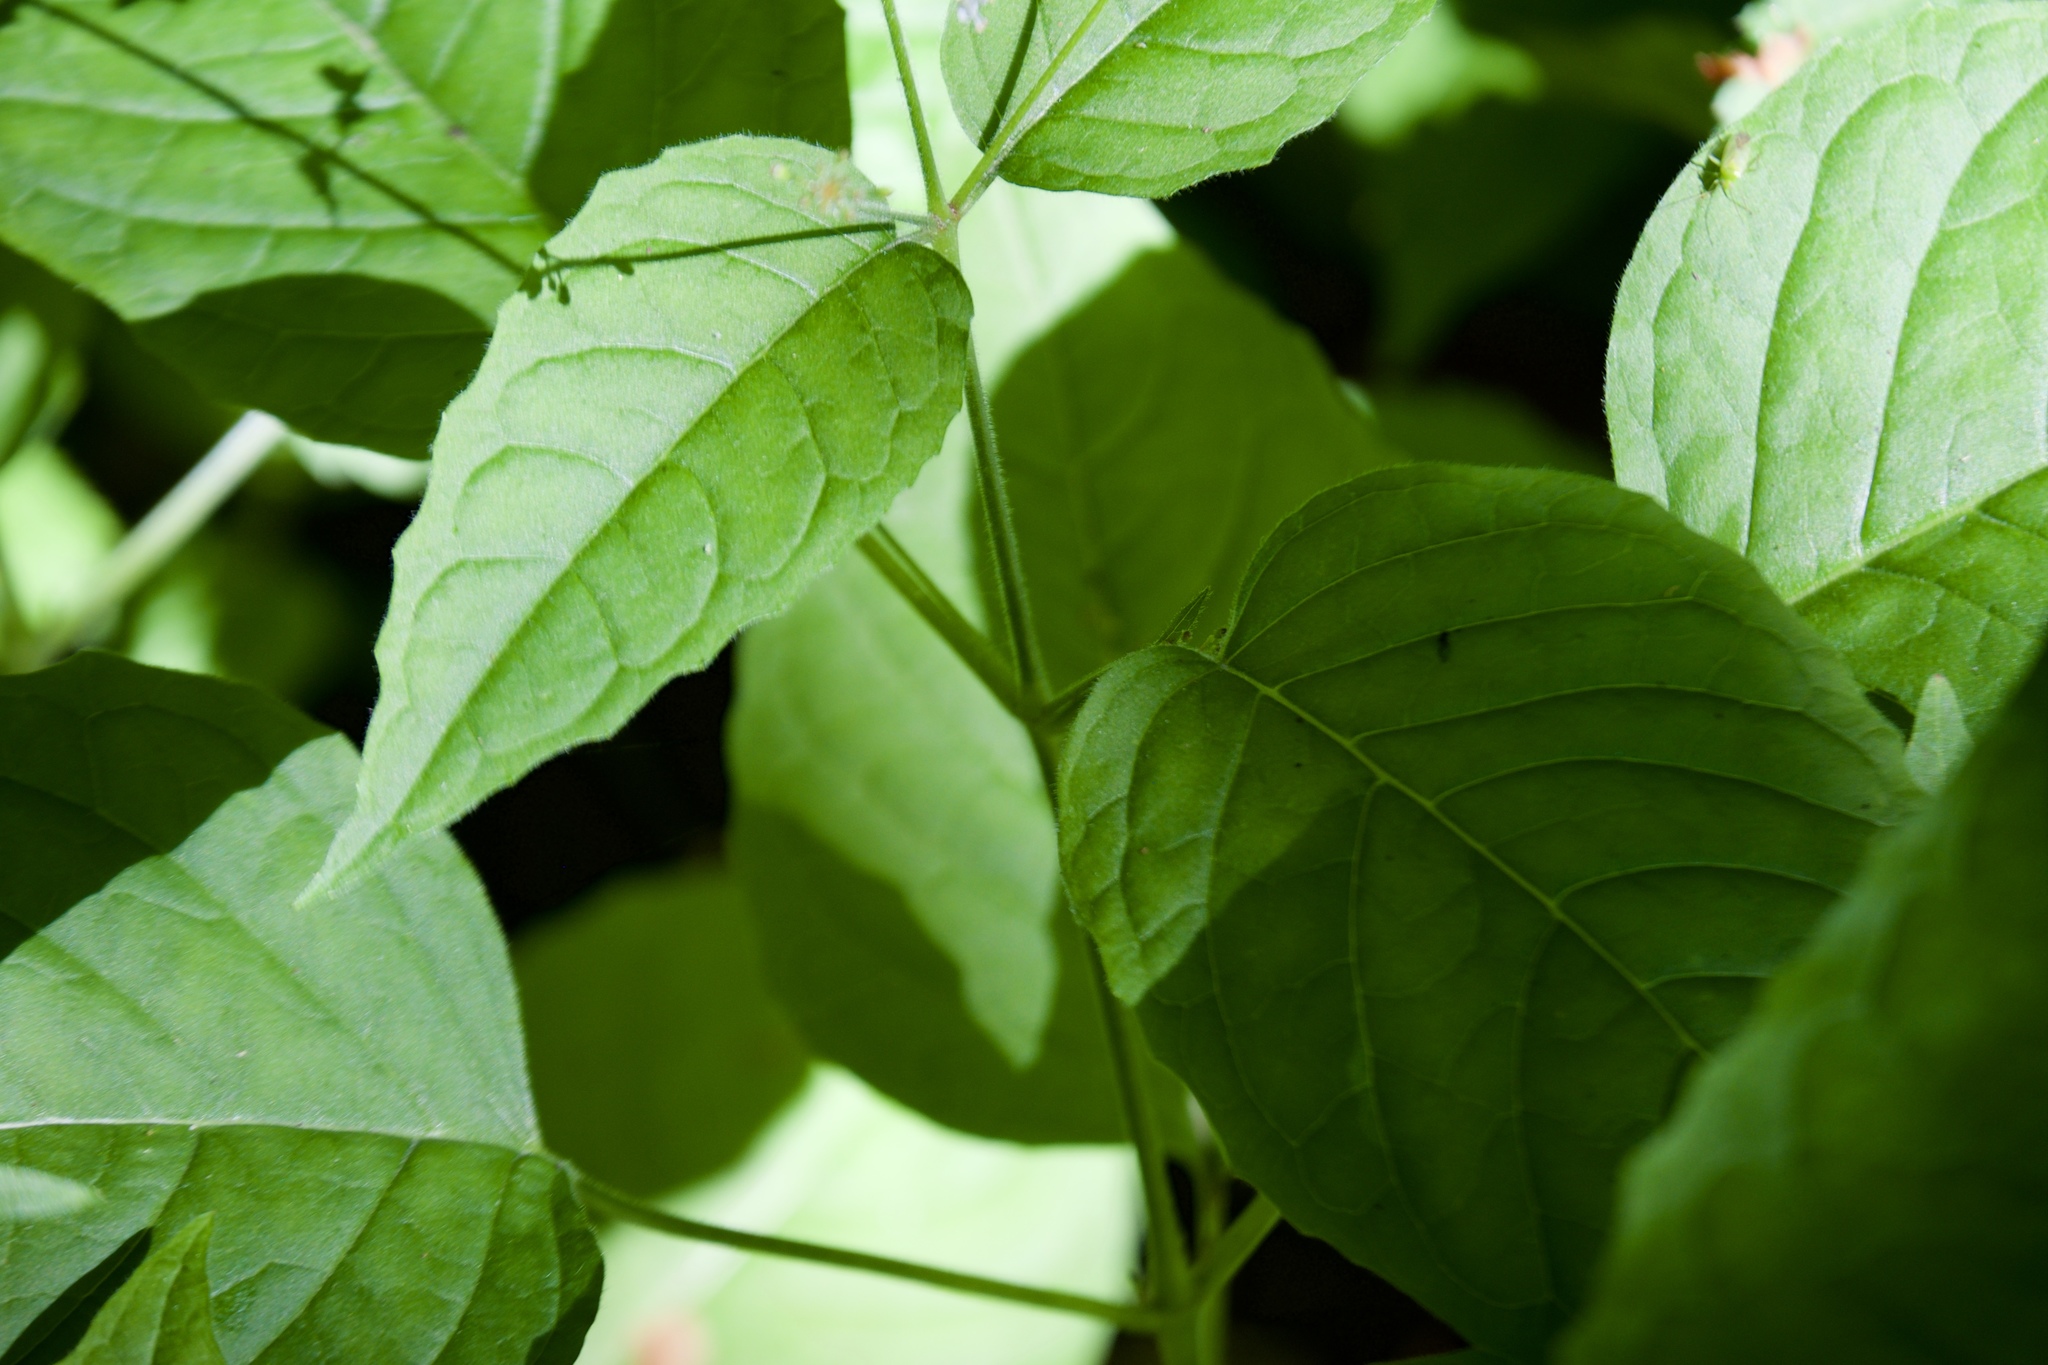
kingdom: Plantae
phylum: Tracheophyta
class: Magnoliopsida
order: Myrtales
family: Onagraceae
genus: Circaea
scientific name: Circaea lutetiana
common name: Enchanter's-nightshade
